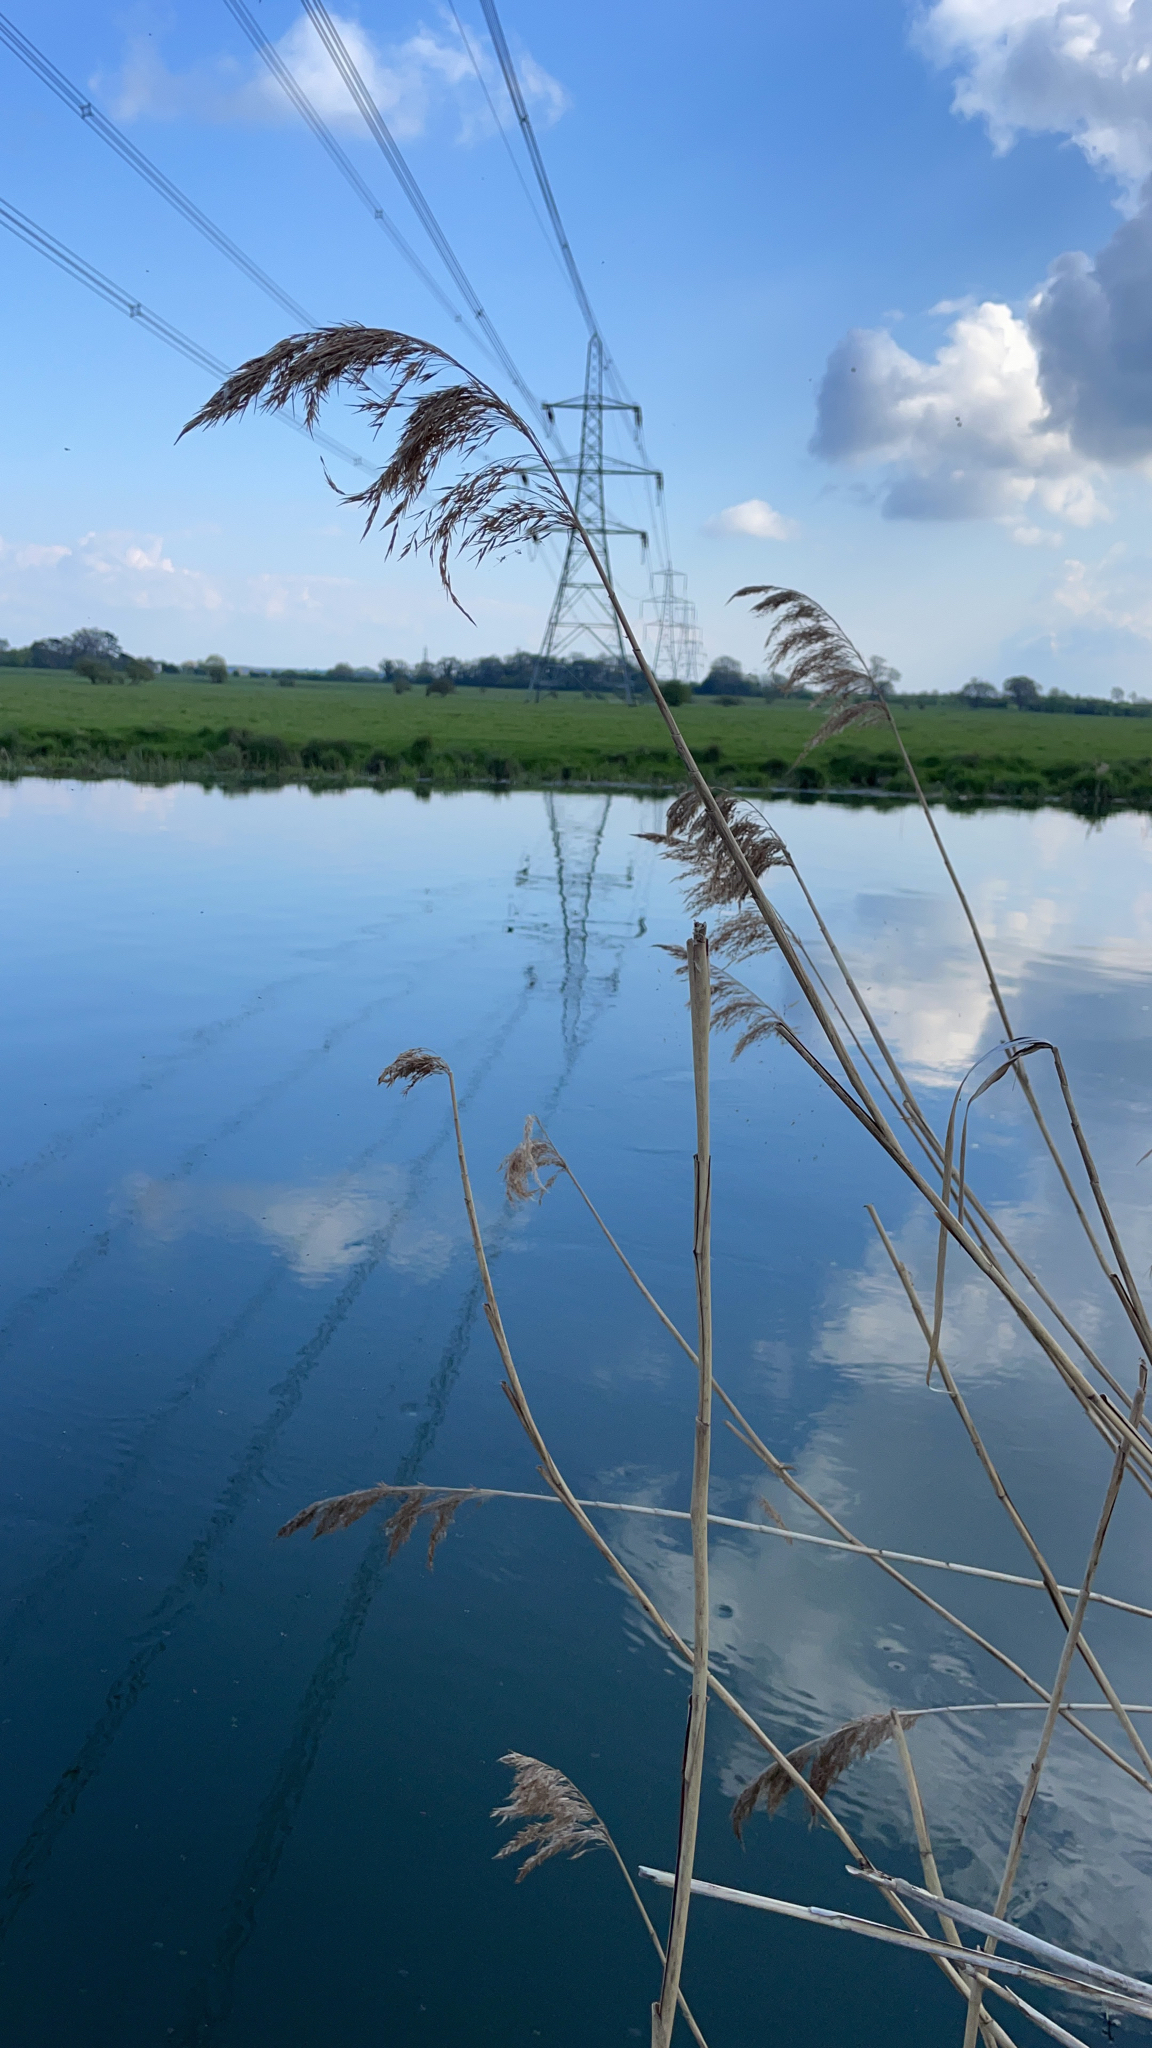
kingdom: Plantae
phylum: Tracheophyta
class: Liliopsida
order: Poales
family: Poaceae
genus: Phragmites
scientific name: Phragmites australis
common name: Common reed
